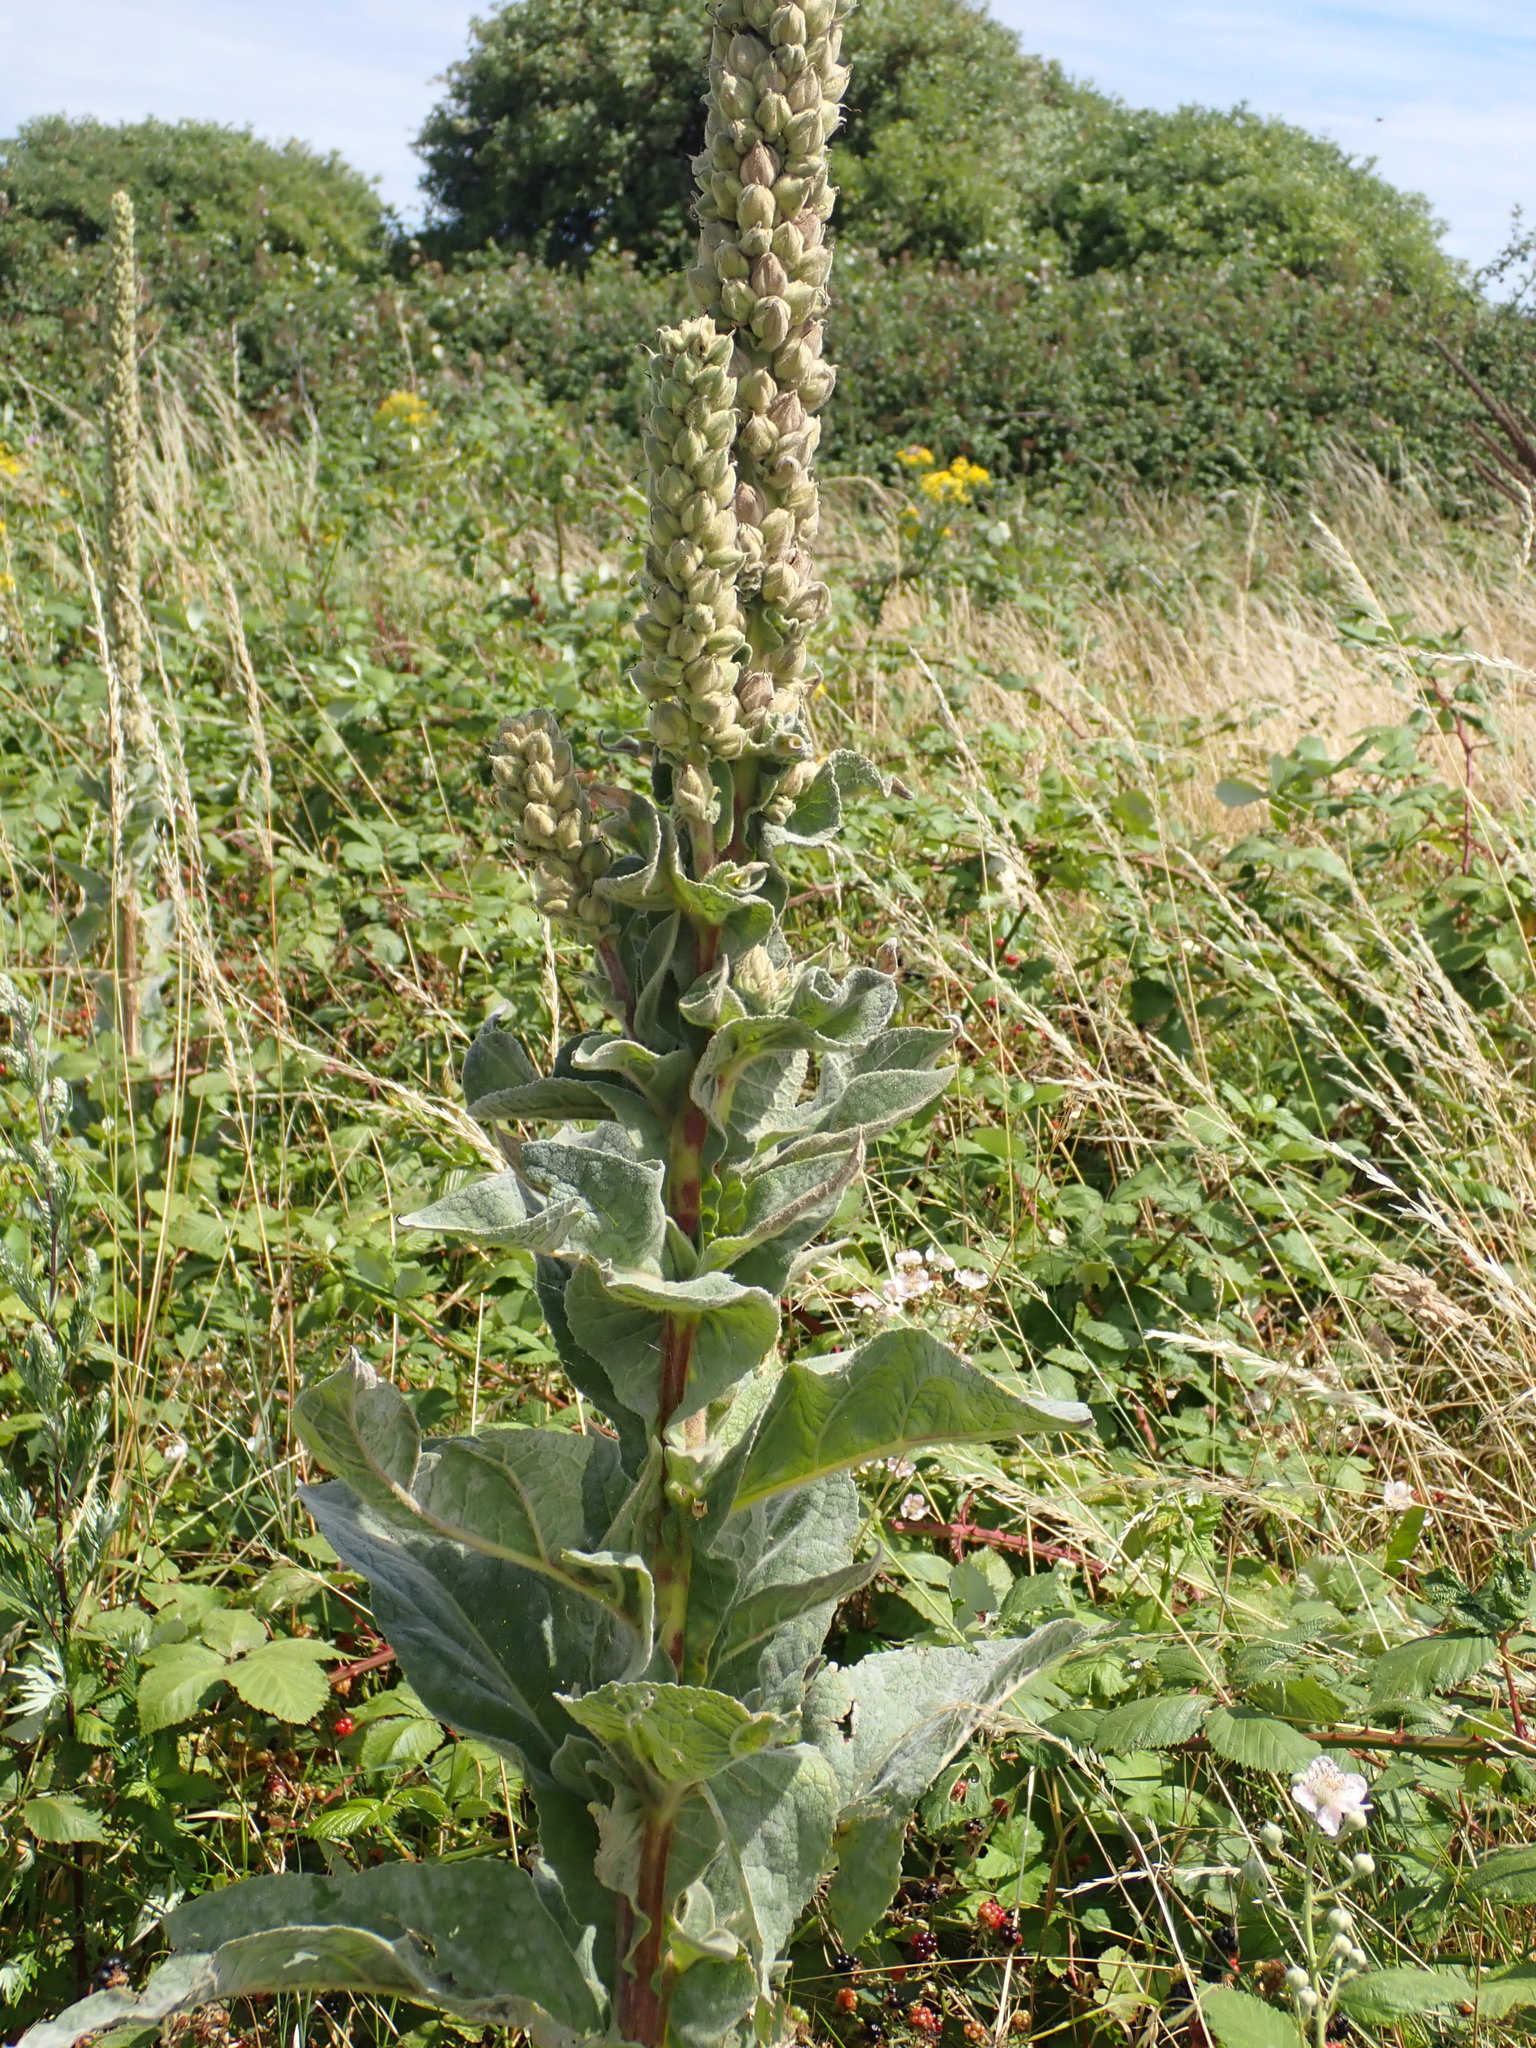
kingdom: Plantae
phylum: Tracheophyta
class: Magnoliopsida
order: Lamiales
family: Scrophulariaceae
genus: Verbascum
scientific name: Verbascum thapsus
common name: Common mullein
